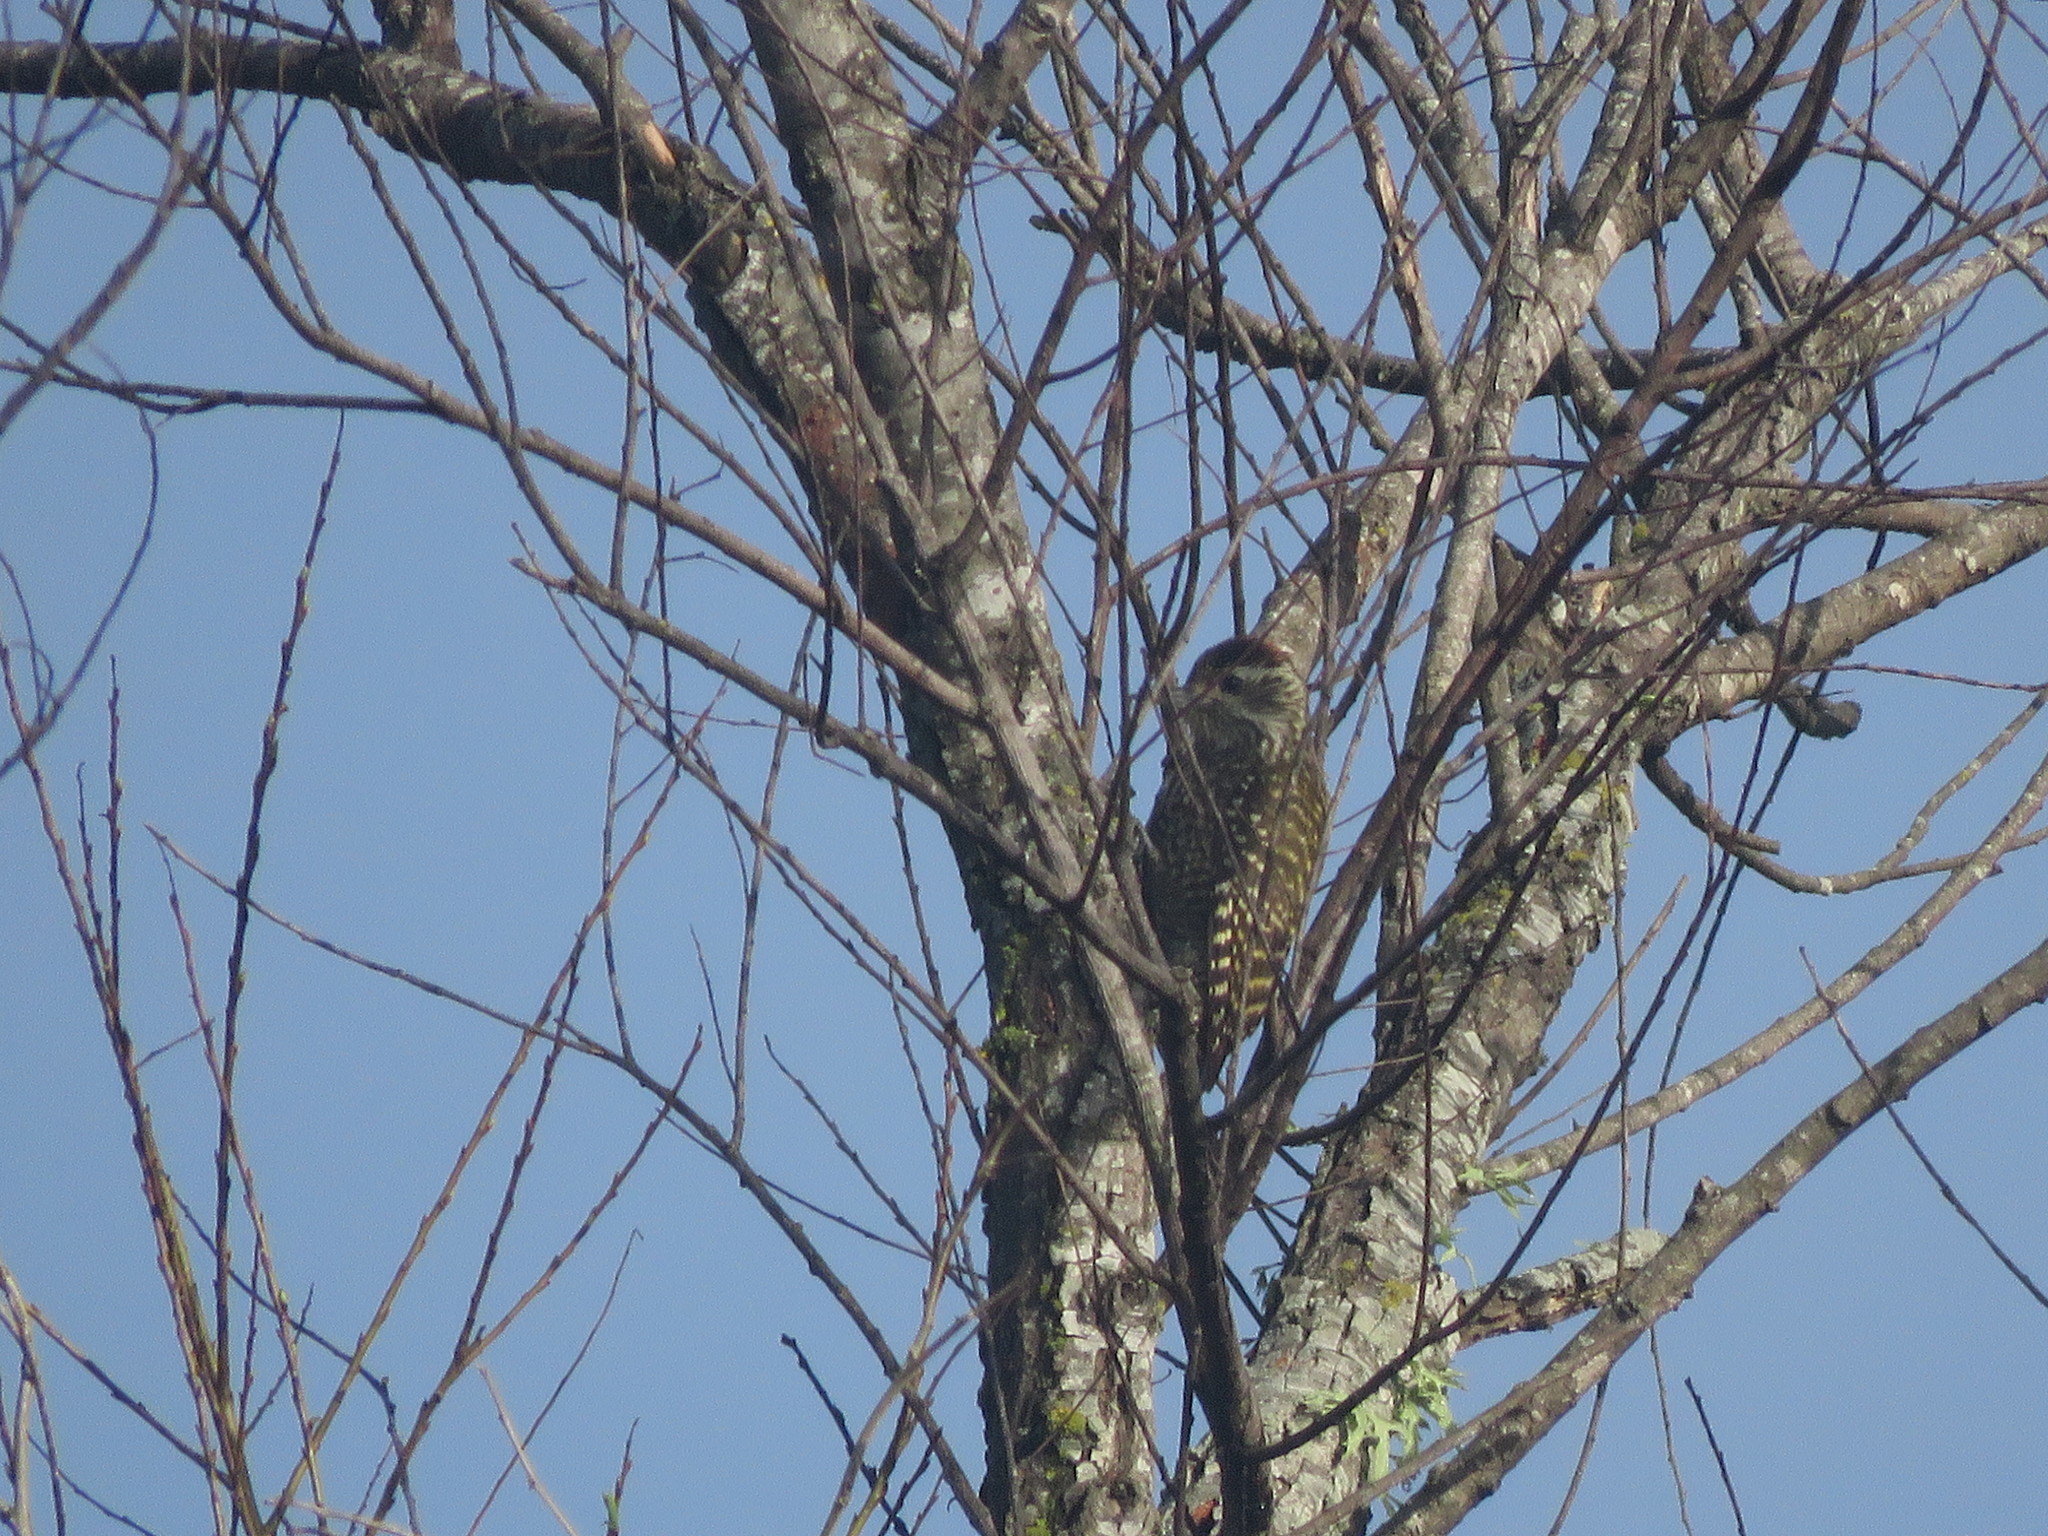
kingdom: Animalia
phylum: Chordata
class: Aves
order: Piciformes
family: Picidae
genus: Veniliornis
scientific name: Veniliornis spilogaster
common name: White-spotted woodpecker
